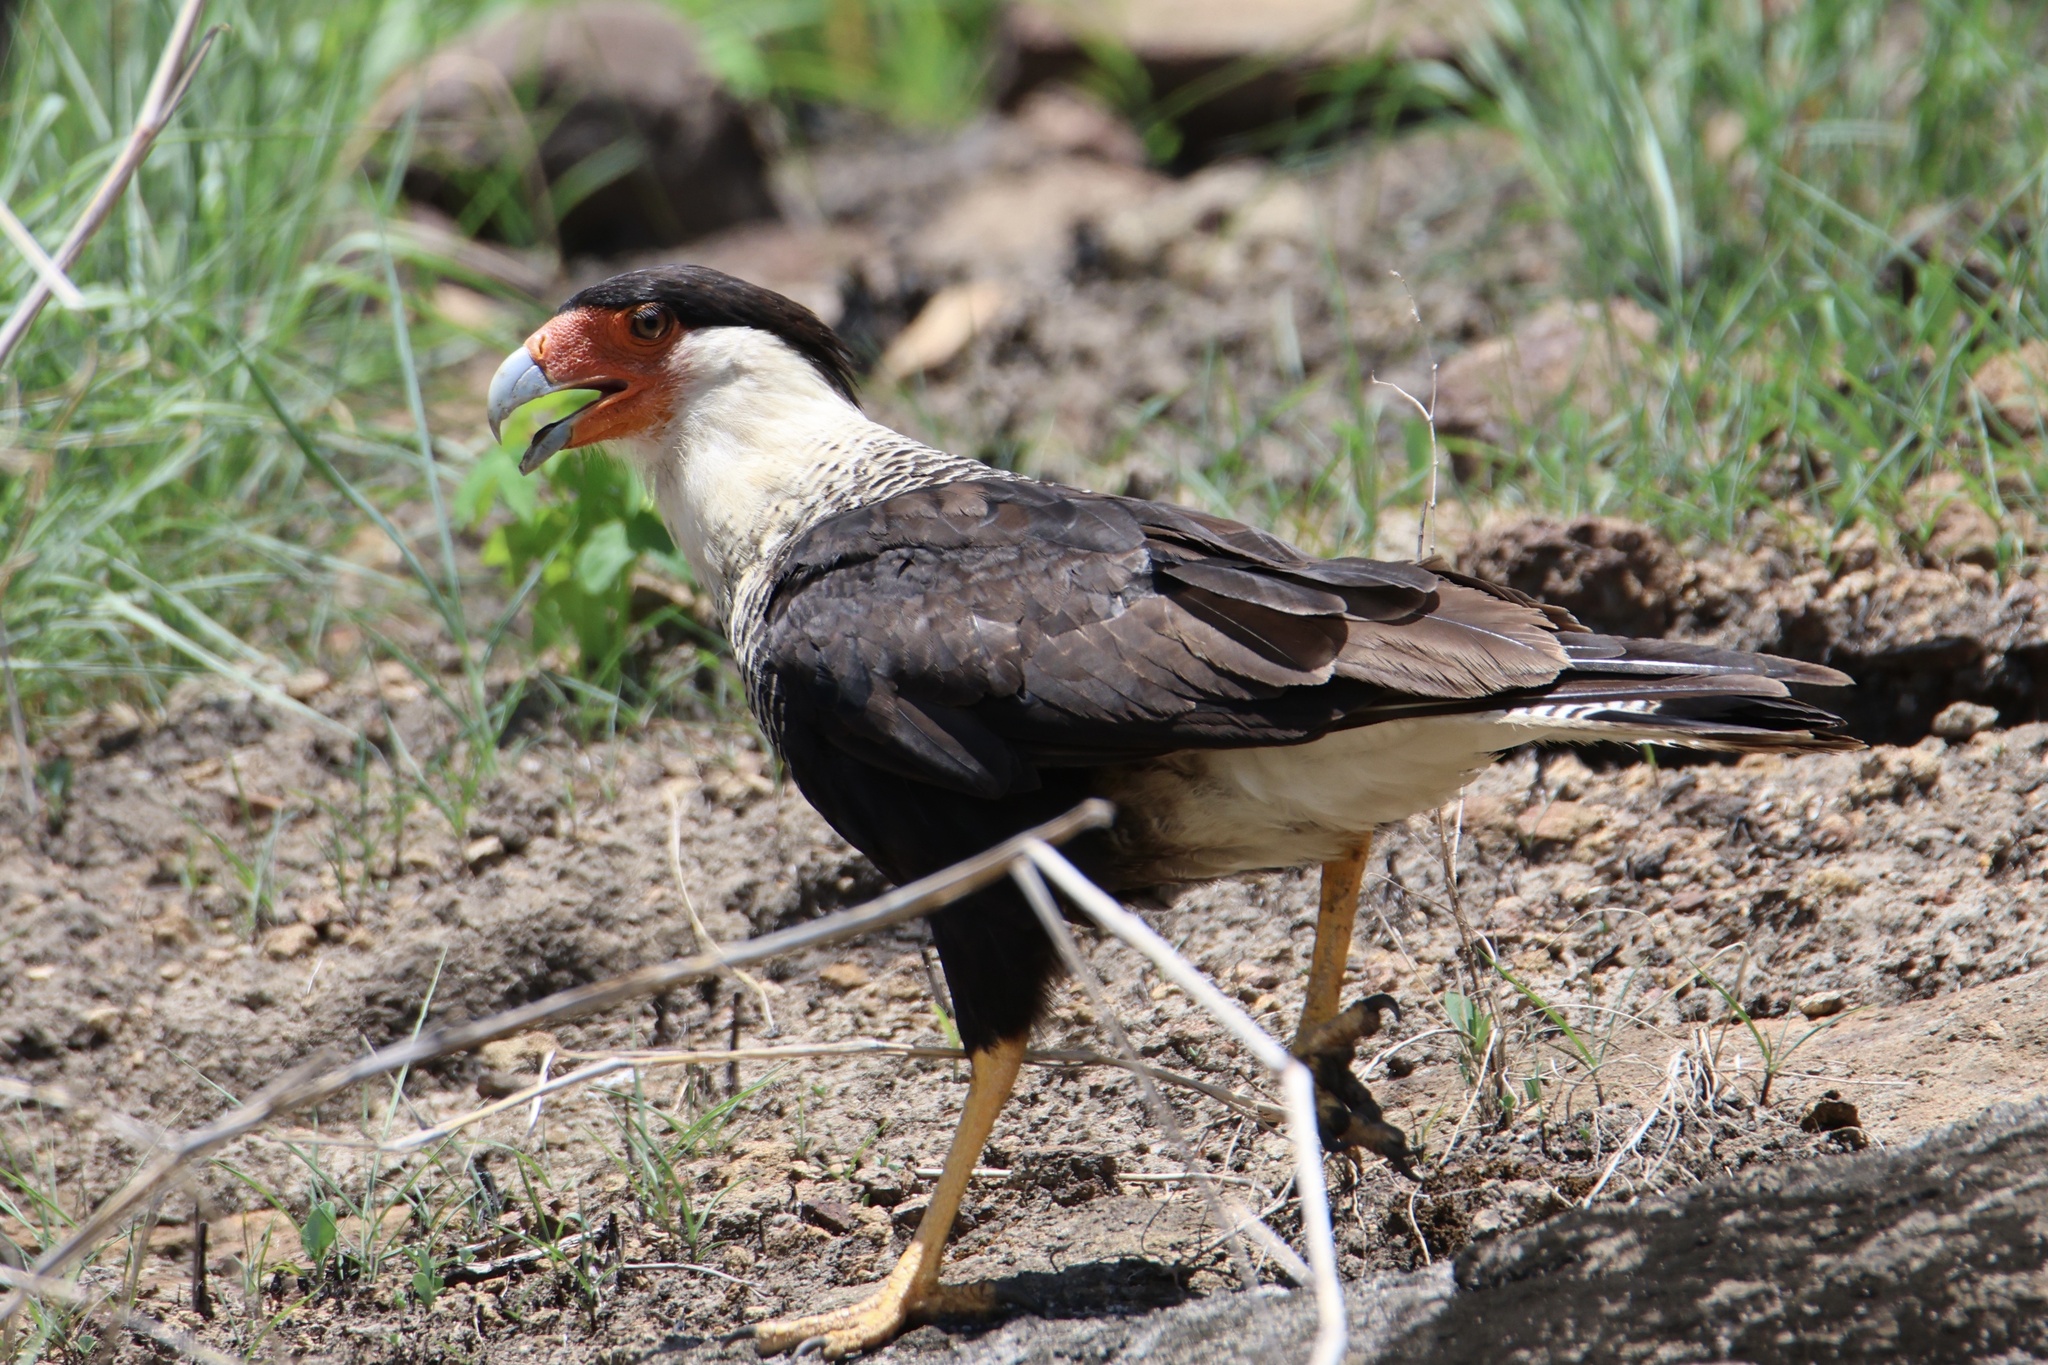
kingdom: Animalia
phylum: Chordata
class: Aves
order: Falconiformes
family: Falconidae
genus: Caracara
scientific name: Caracara plancus
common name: Southern caracara
